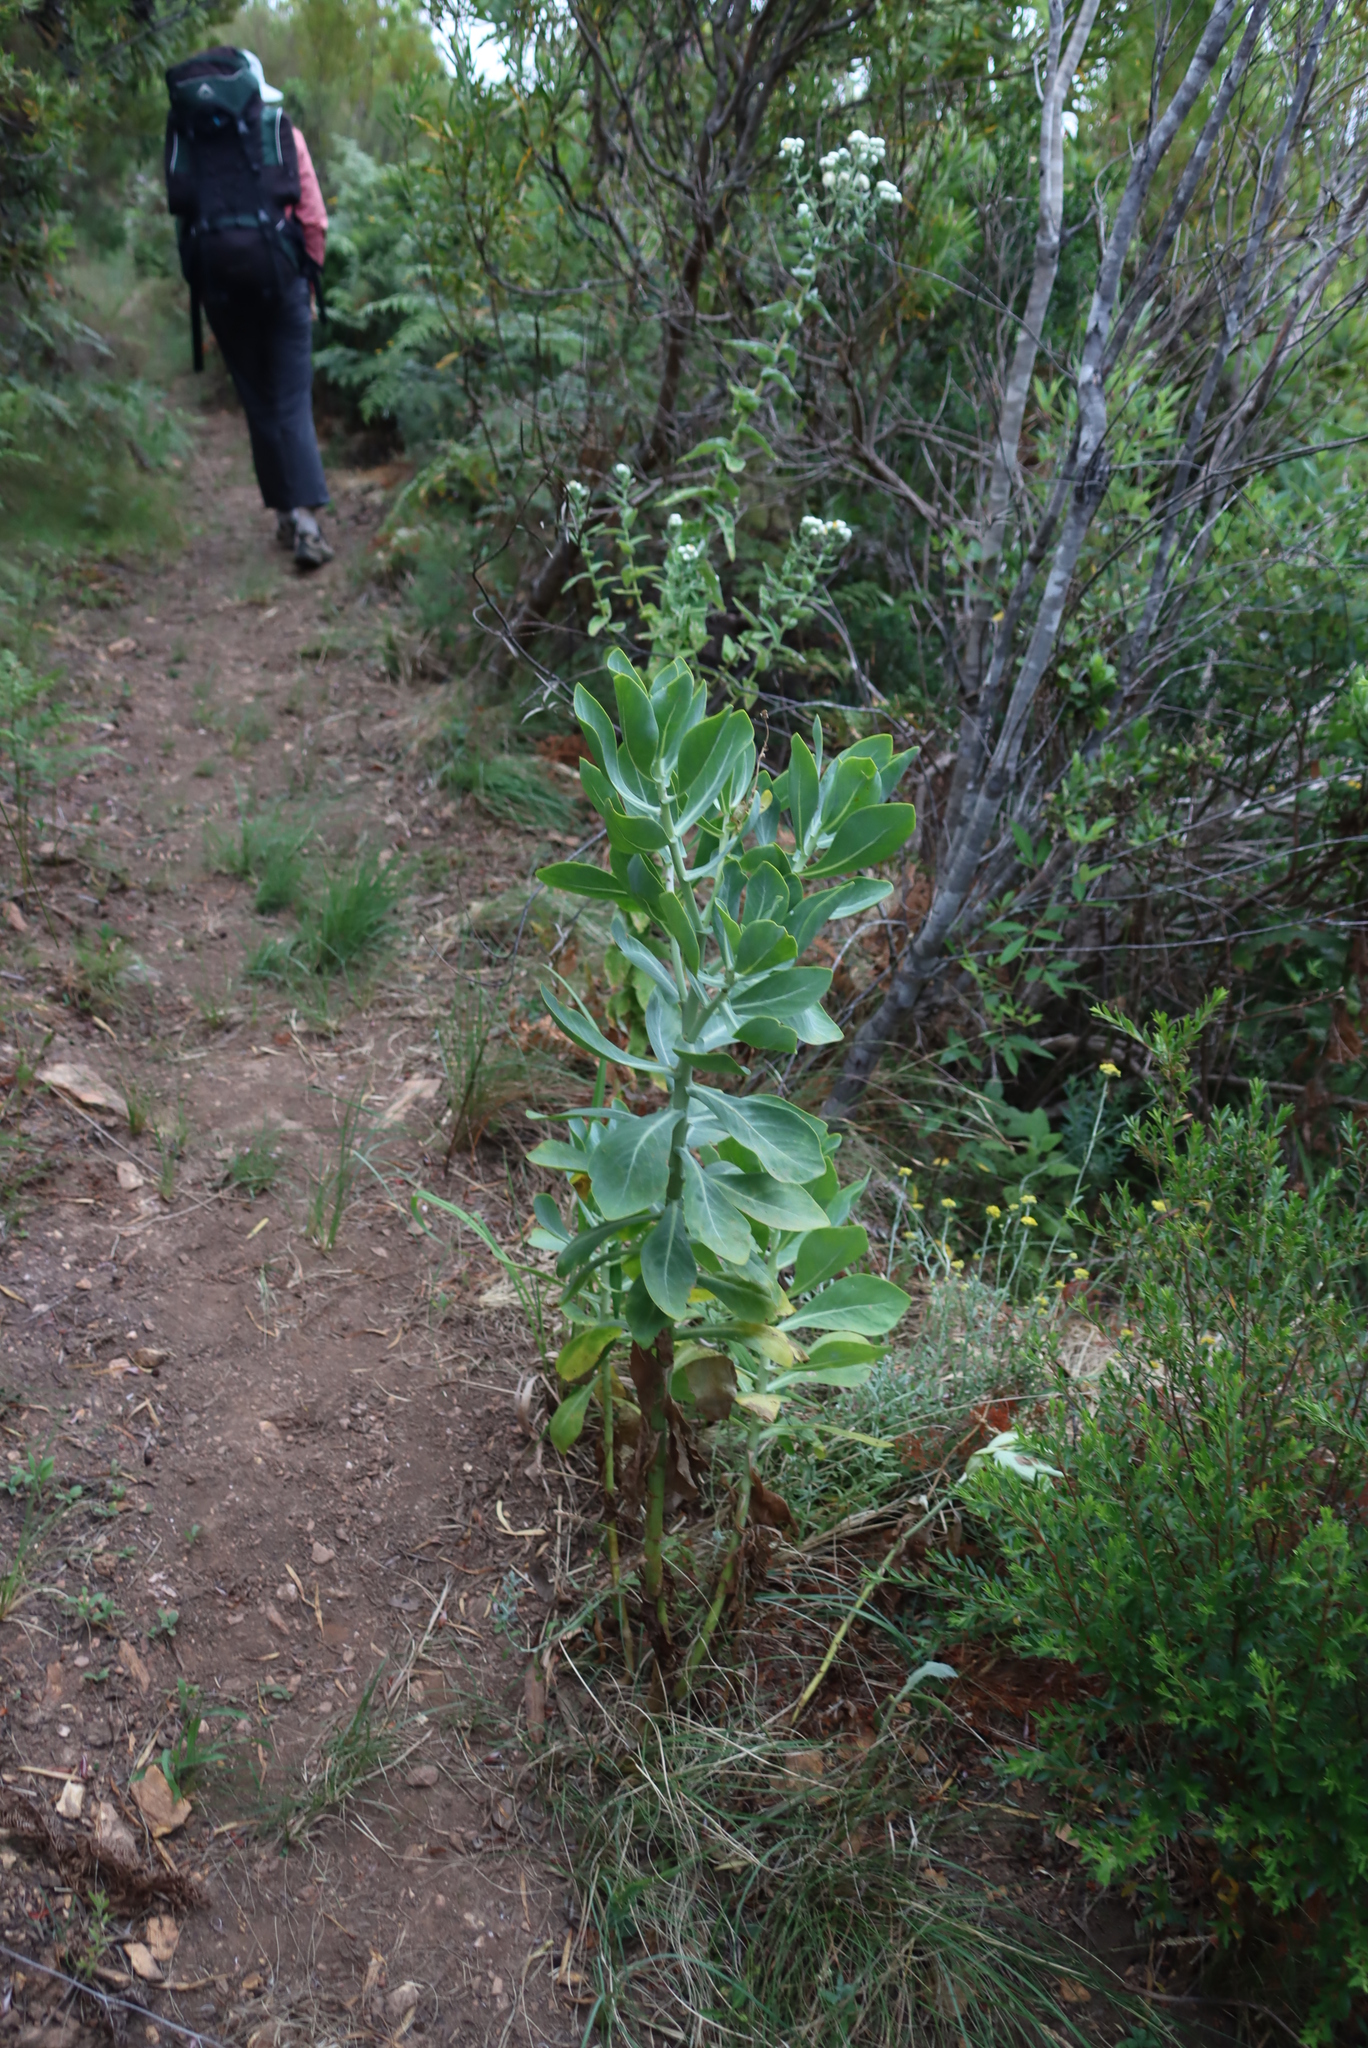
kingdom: Plantae
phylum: Tracheophyta
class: Magnoliopsida
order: Asterales
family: Asteraceae
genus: Othonna
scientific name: Othonna parviflora
